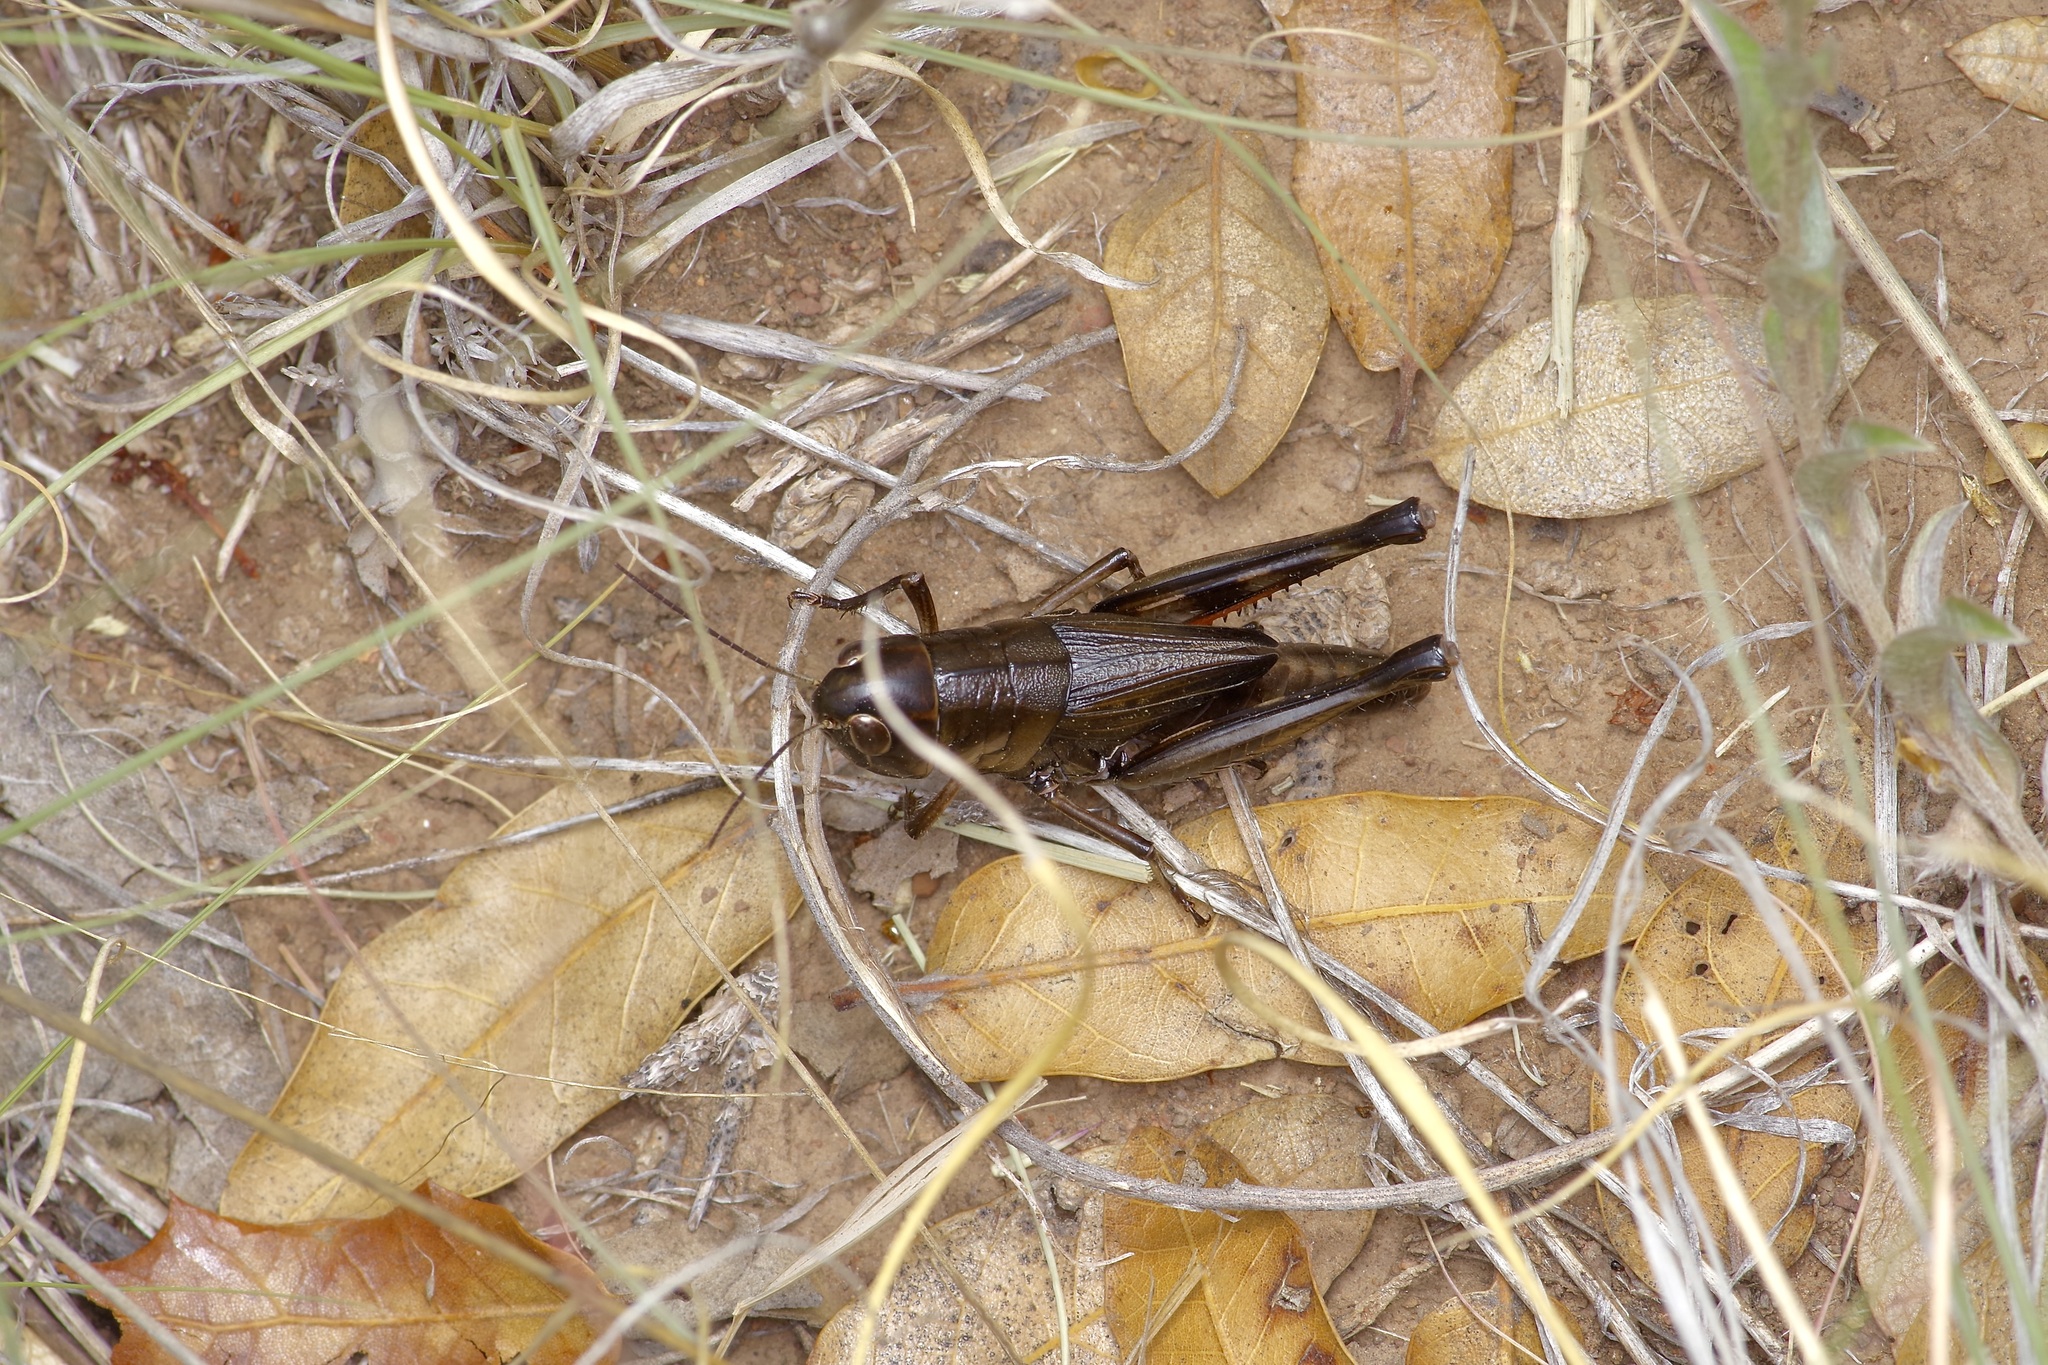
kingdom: Animalia
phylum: Arthropoda
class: Insecta
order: Orthoptera
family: Acrididae
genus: Boopedon
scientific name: Boopedon nubilum
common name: Ebony grasshopper
